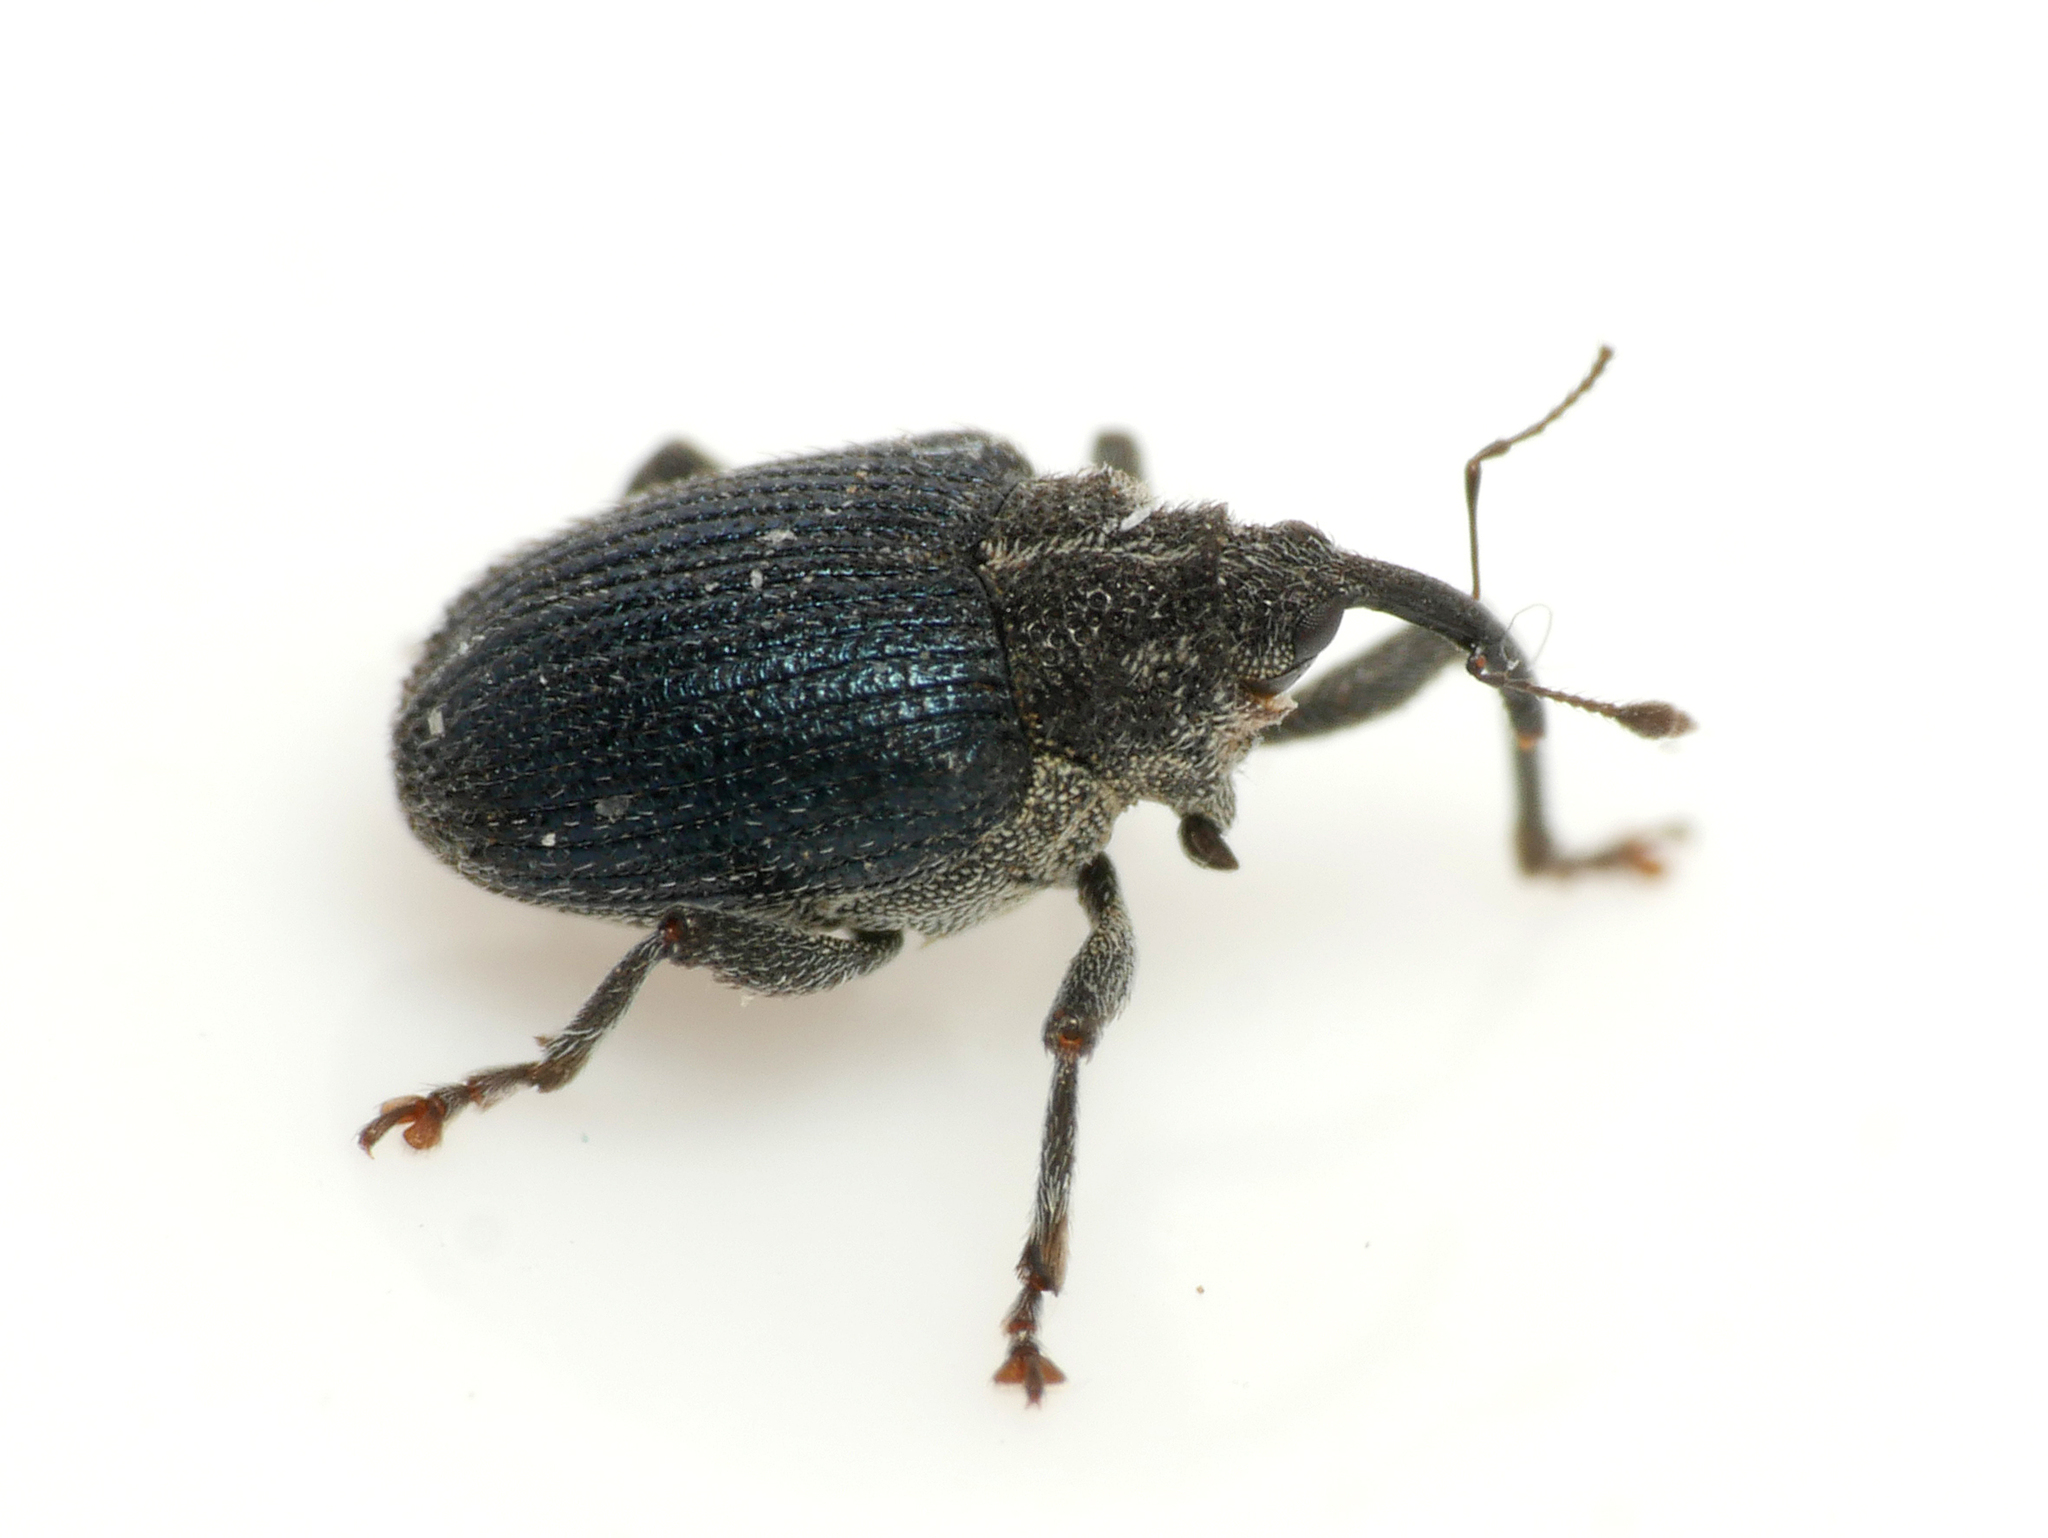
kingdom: Animalia
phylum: Arthropoda
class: Insecta
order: Coleoptera
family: Curculionidae
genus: Ceutorhynchus
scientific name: Ceutorhynchus sulcicollis
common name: Weevil
